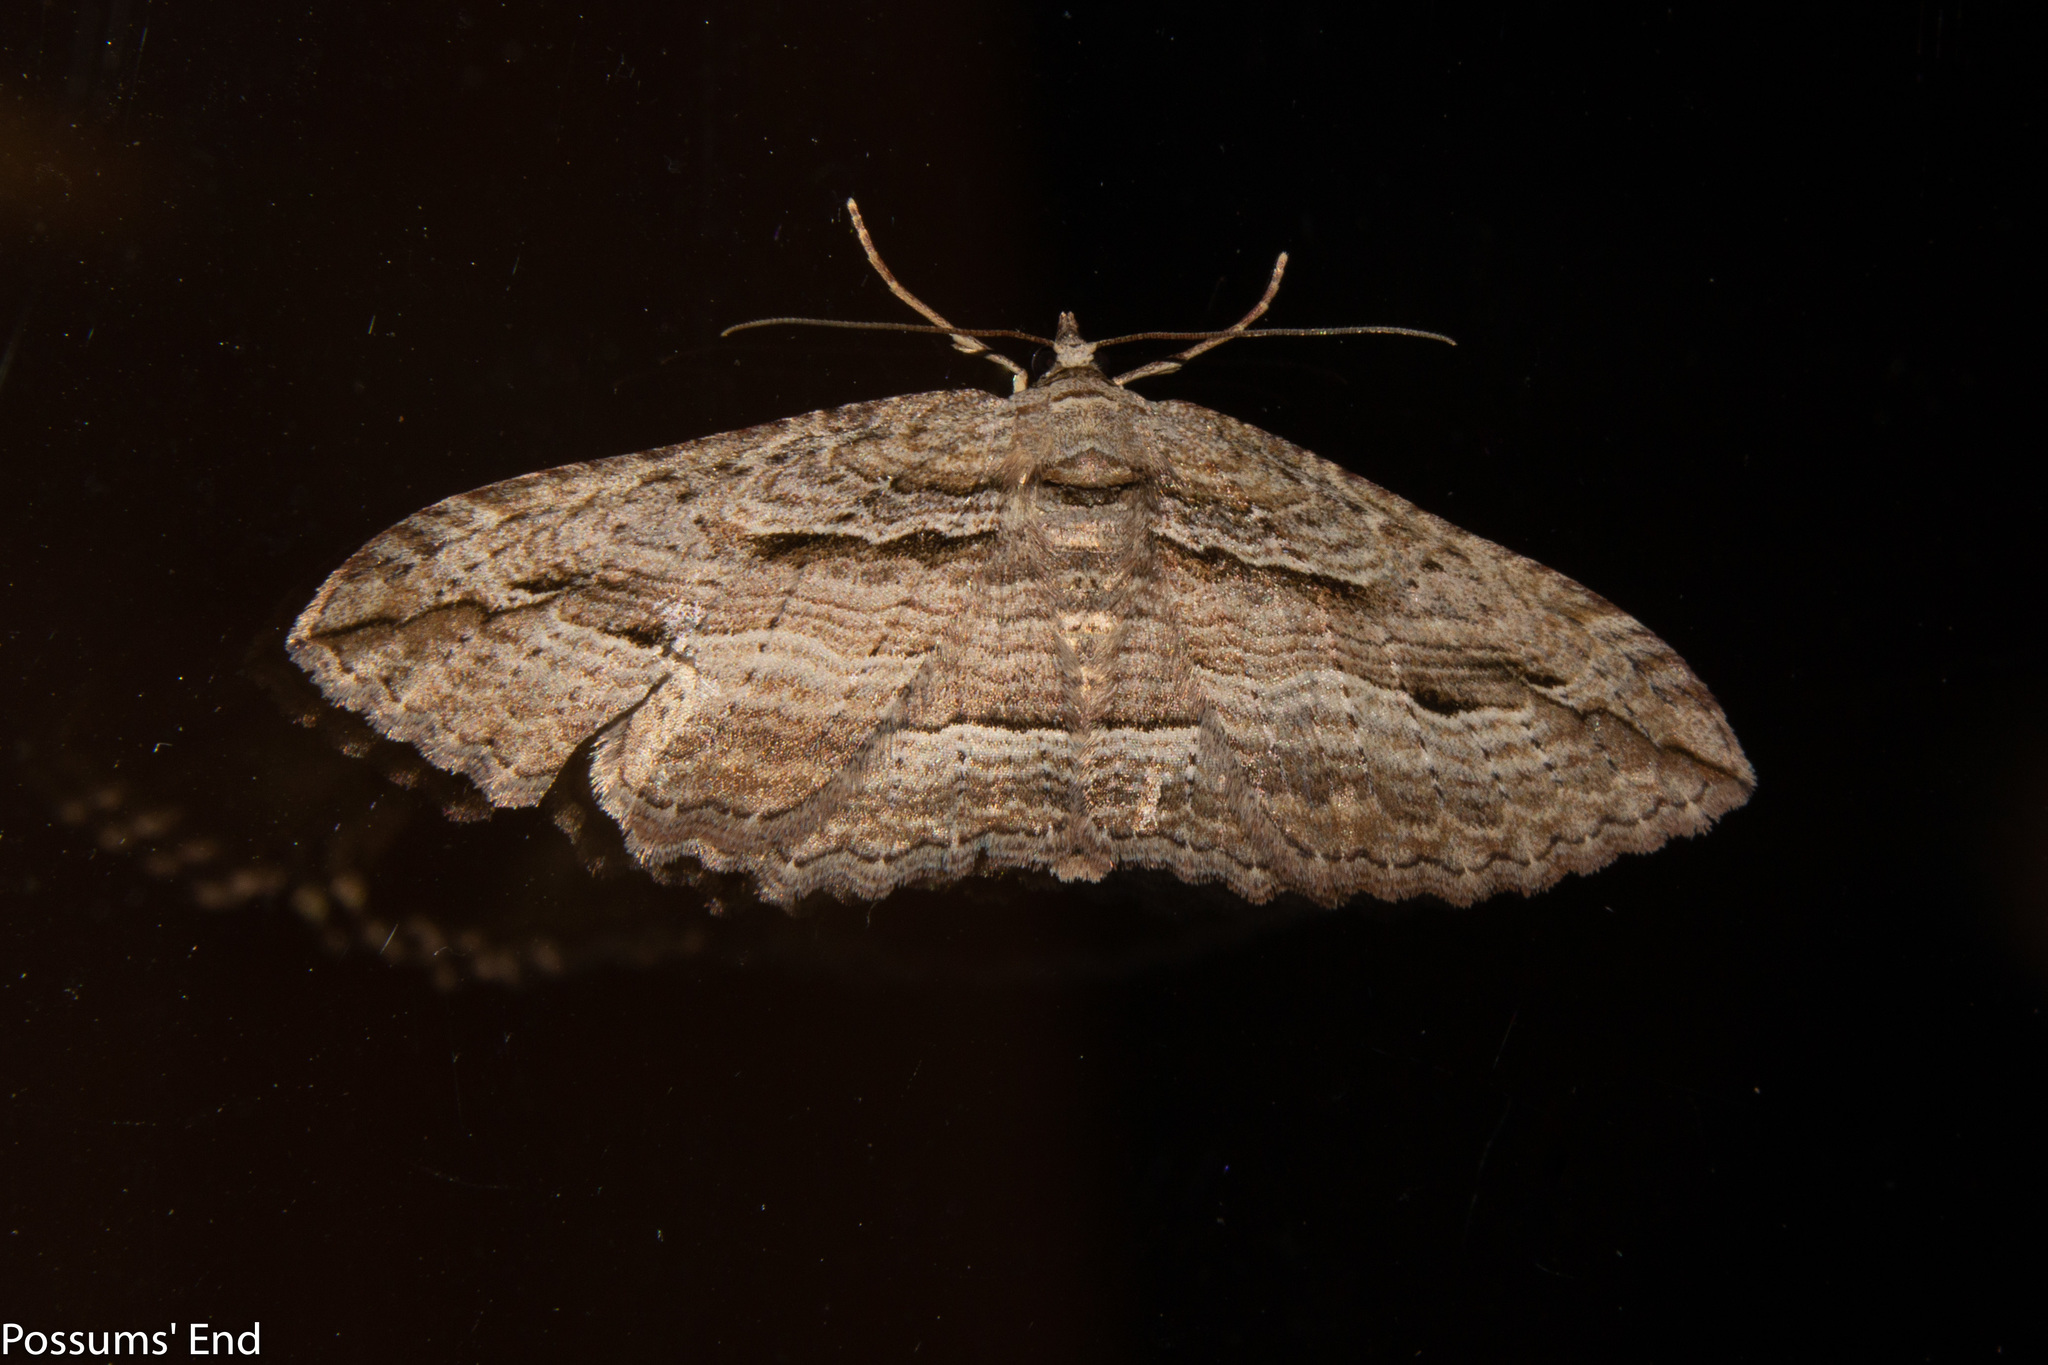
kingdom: Animalia
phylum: Arthropoda
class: Insecta
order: Lepidoptera
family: Geometridae
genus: Austrocidaria
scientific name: Austrocidaria gobiata
